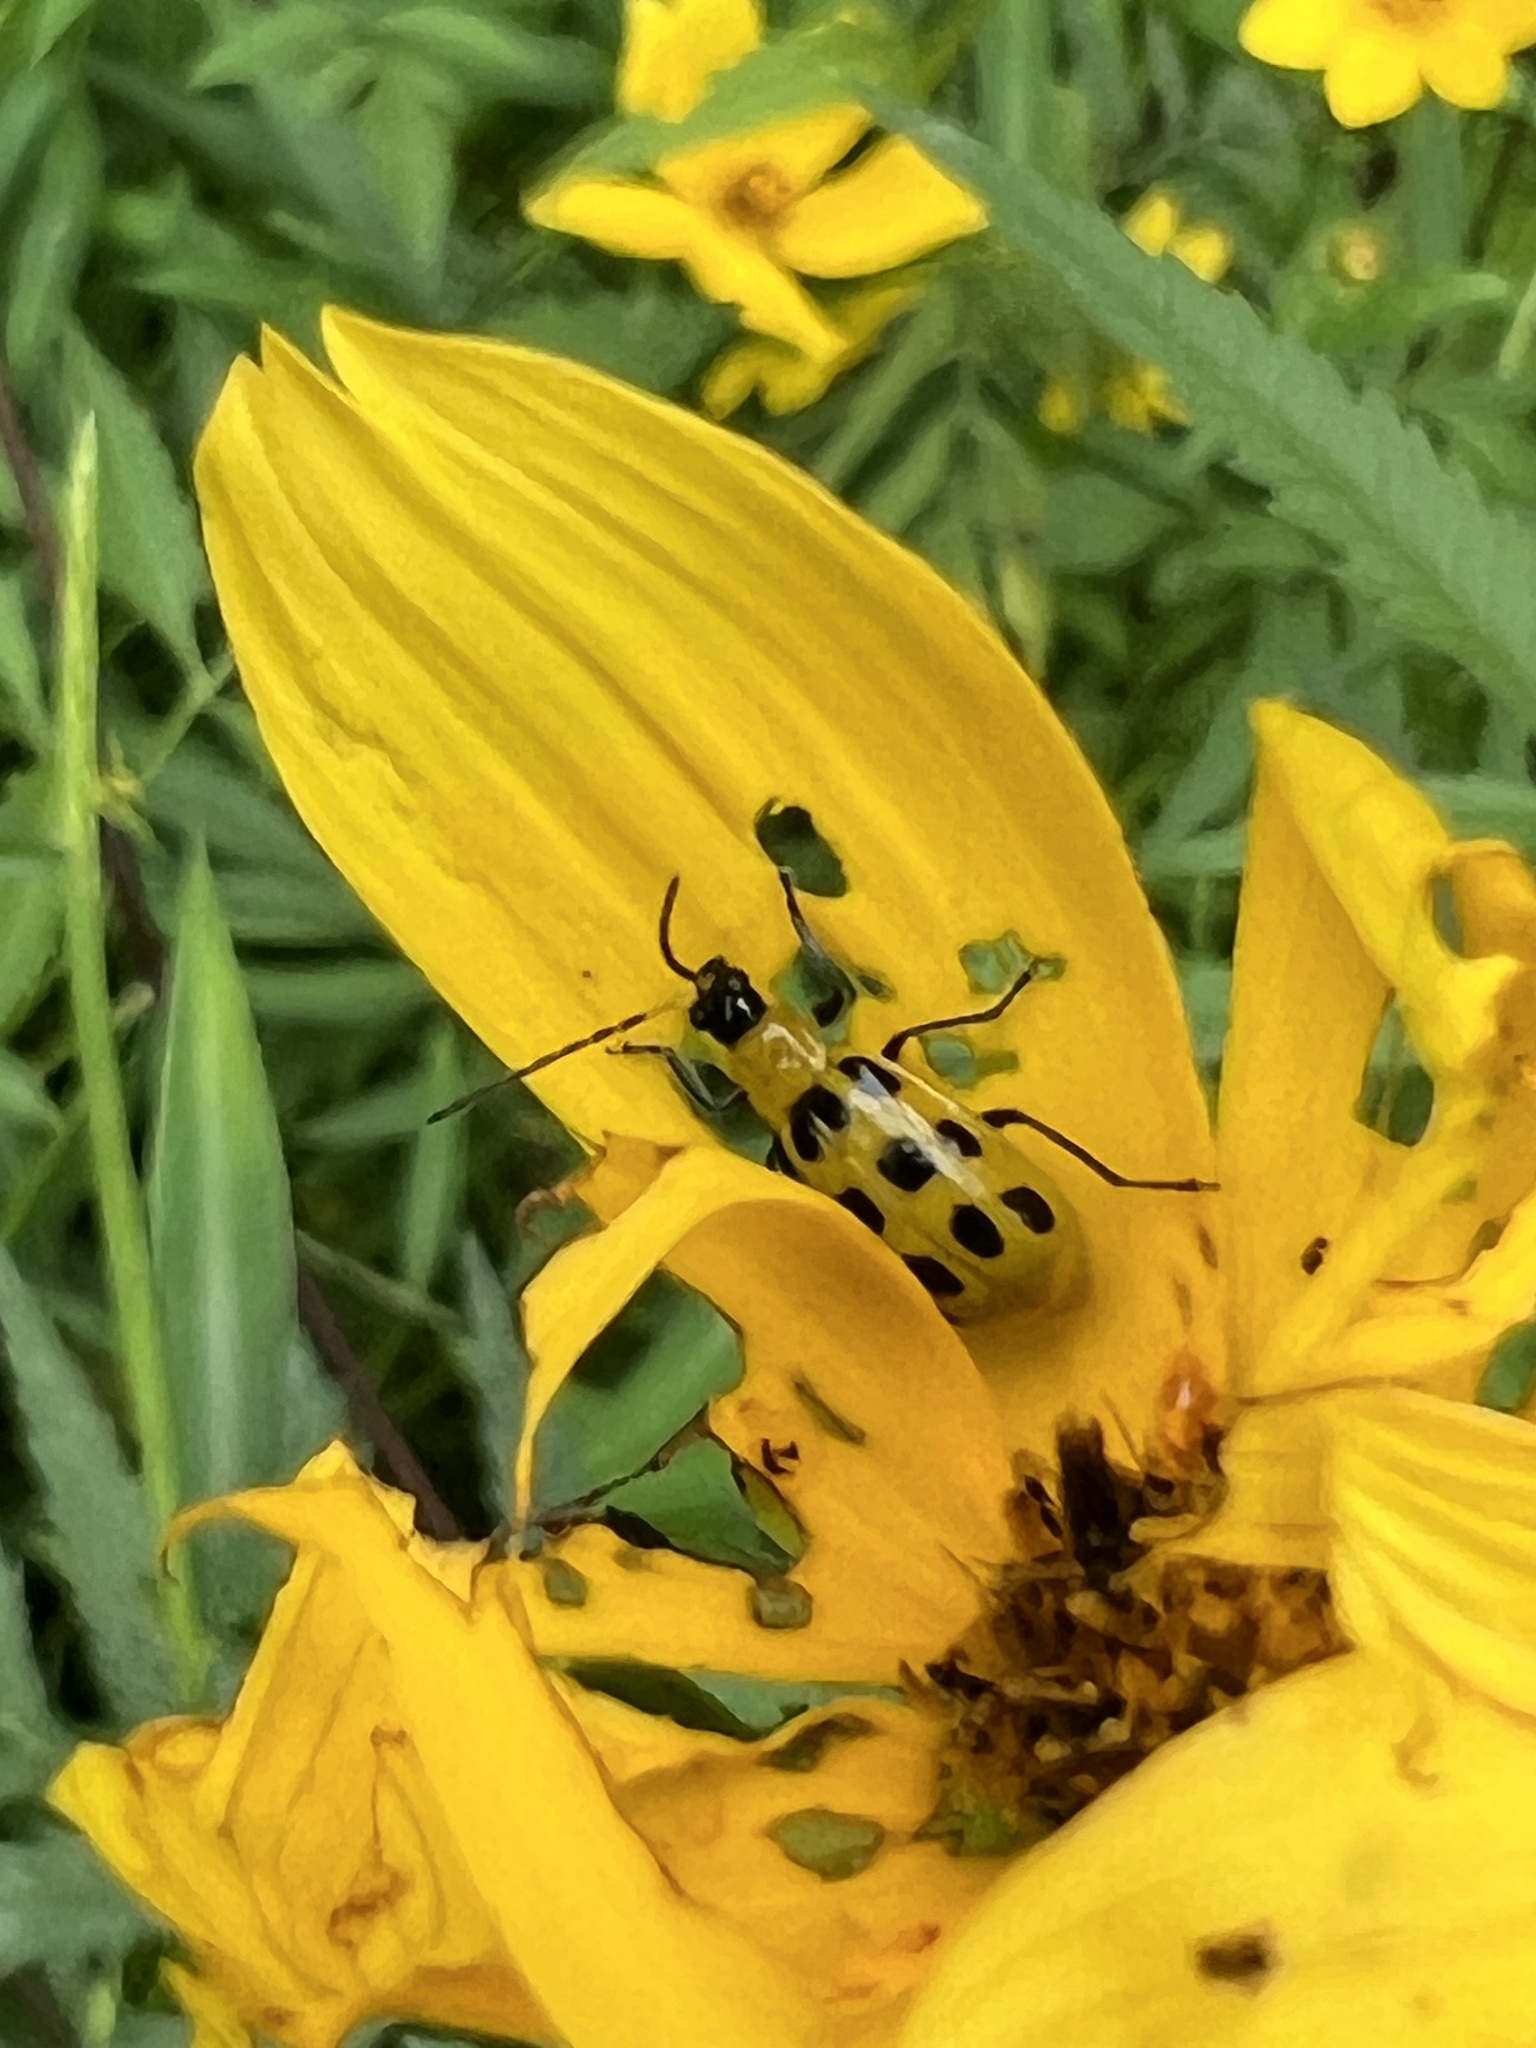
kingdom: Animalia
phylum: Arthropoda
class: Insecta
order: Coleoptera
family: Chrysomelidae
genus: Diabrotica
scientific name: Diabrotica undecimpunctata
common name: Spotted cucumber beetle
